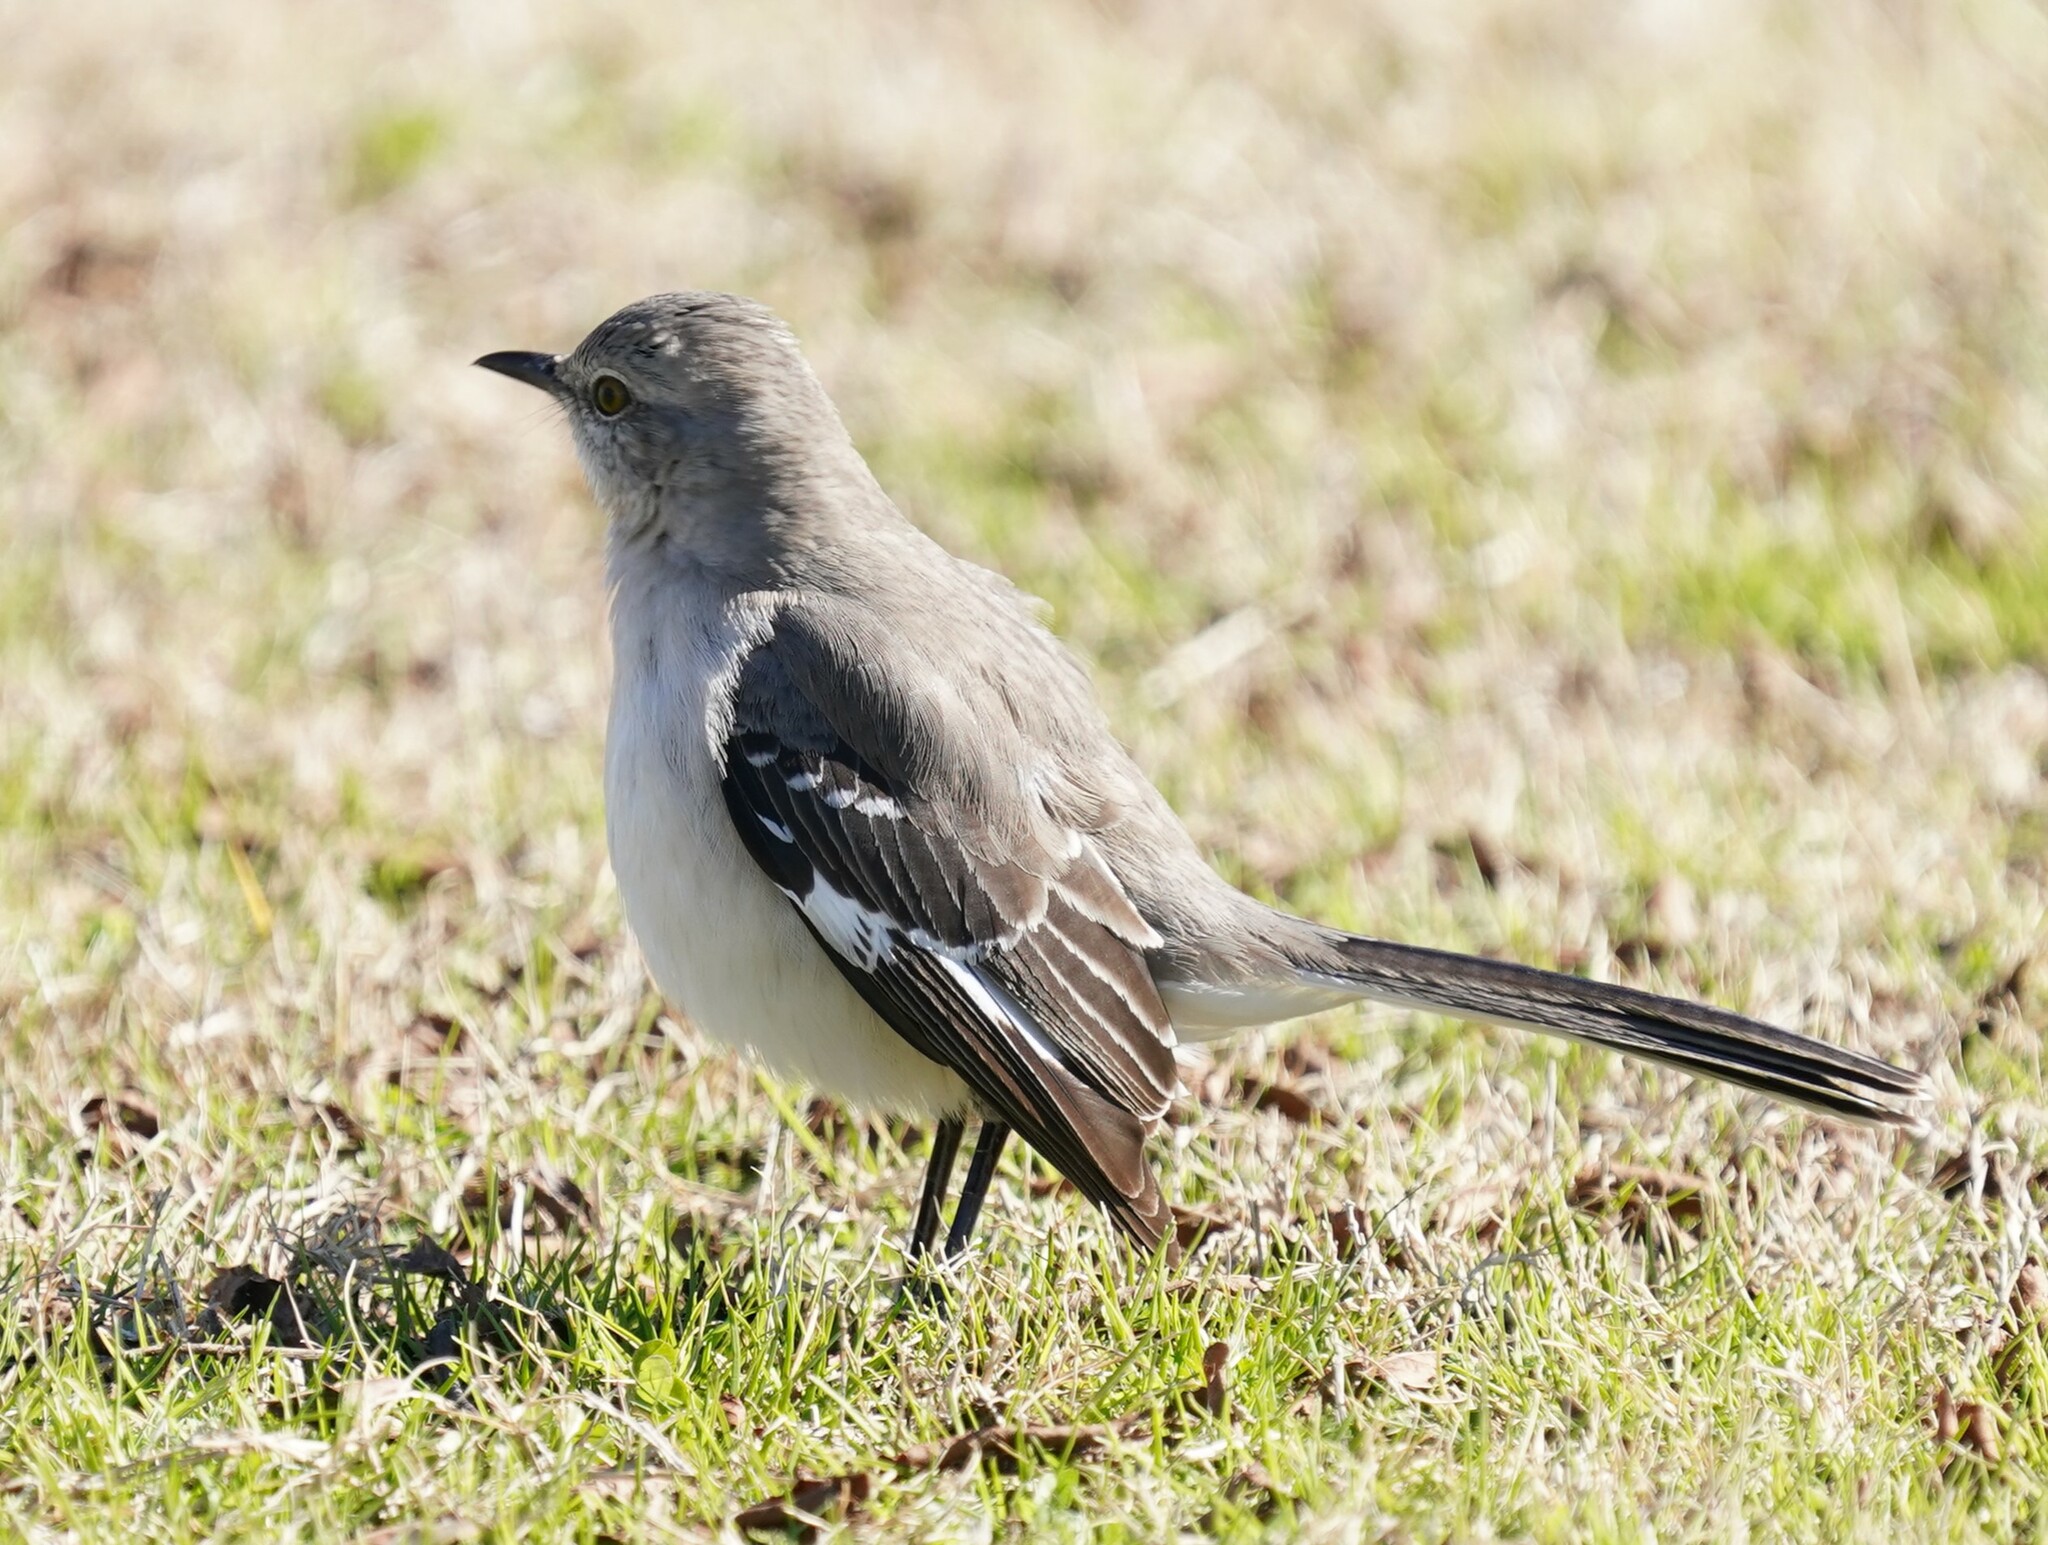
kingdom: Animalia
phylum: Chordata
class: Aves
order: Passeriformes
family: Mimidae
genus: Mimus
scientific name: Mimus polyglottos
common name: Northern mockingbird
